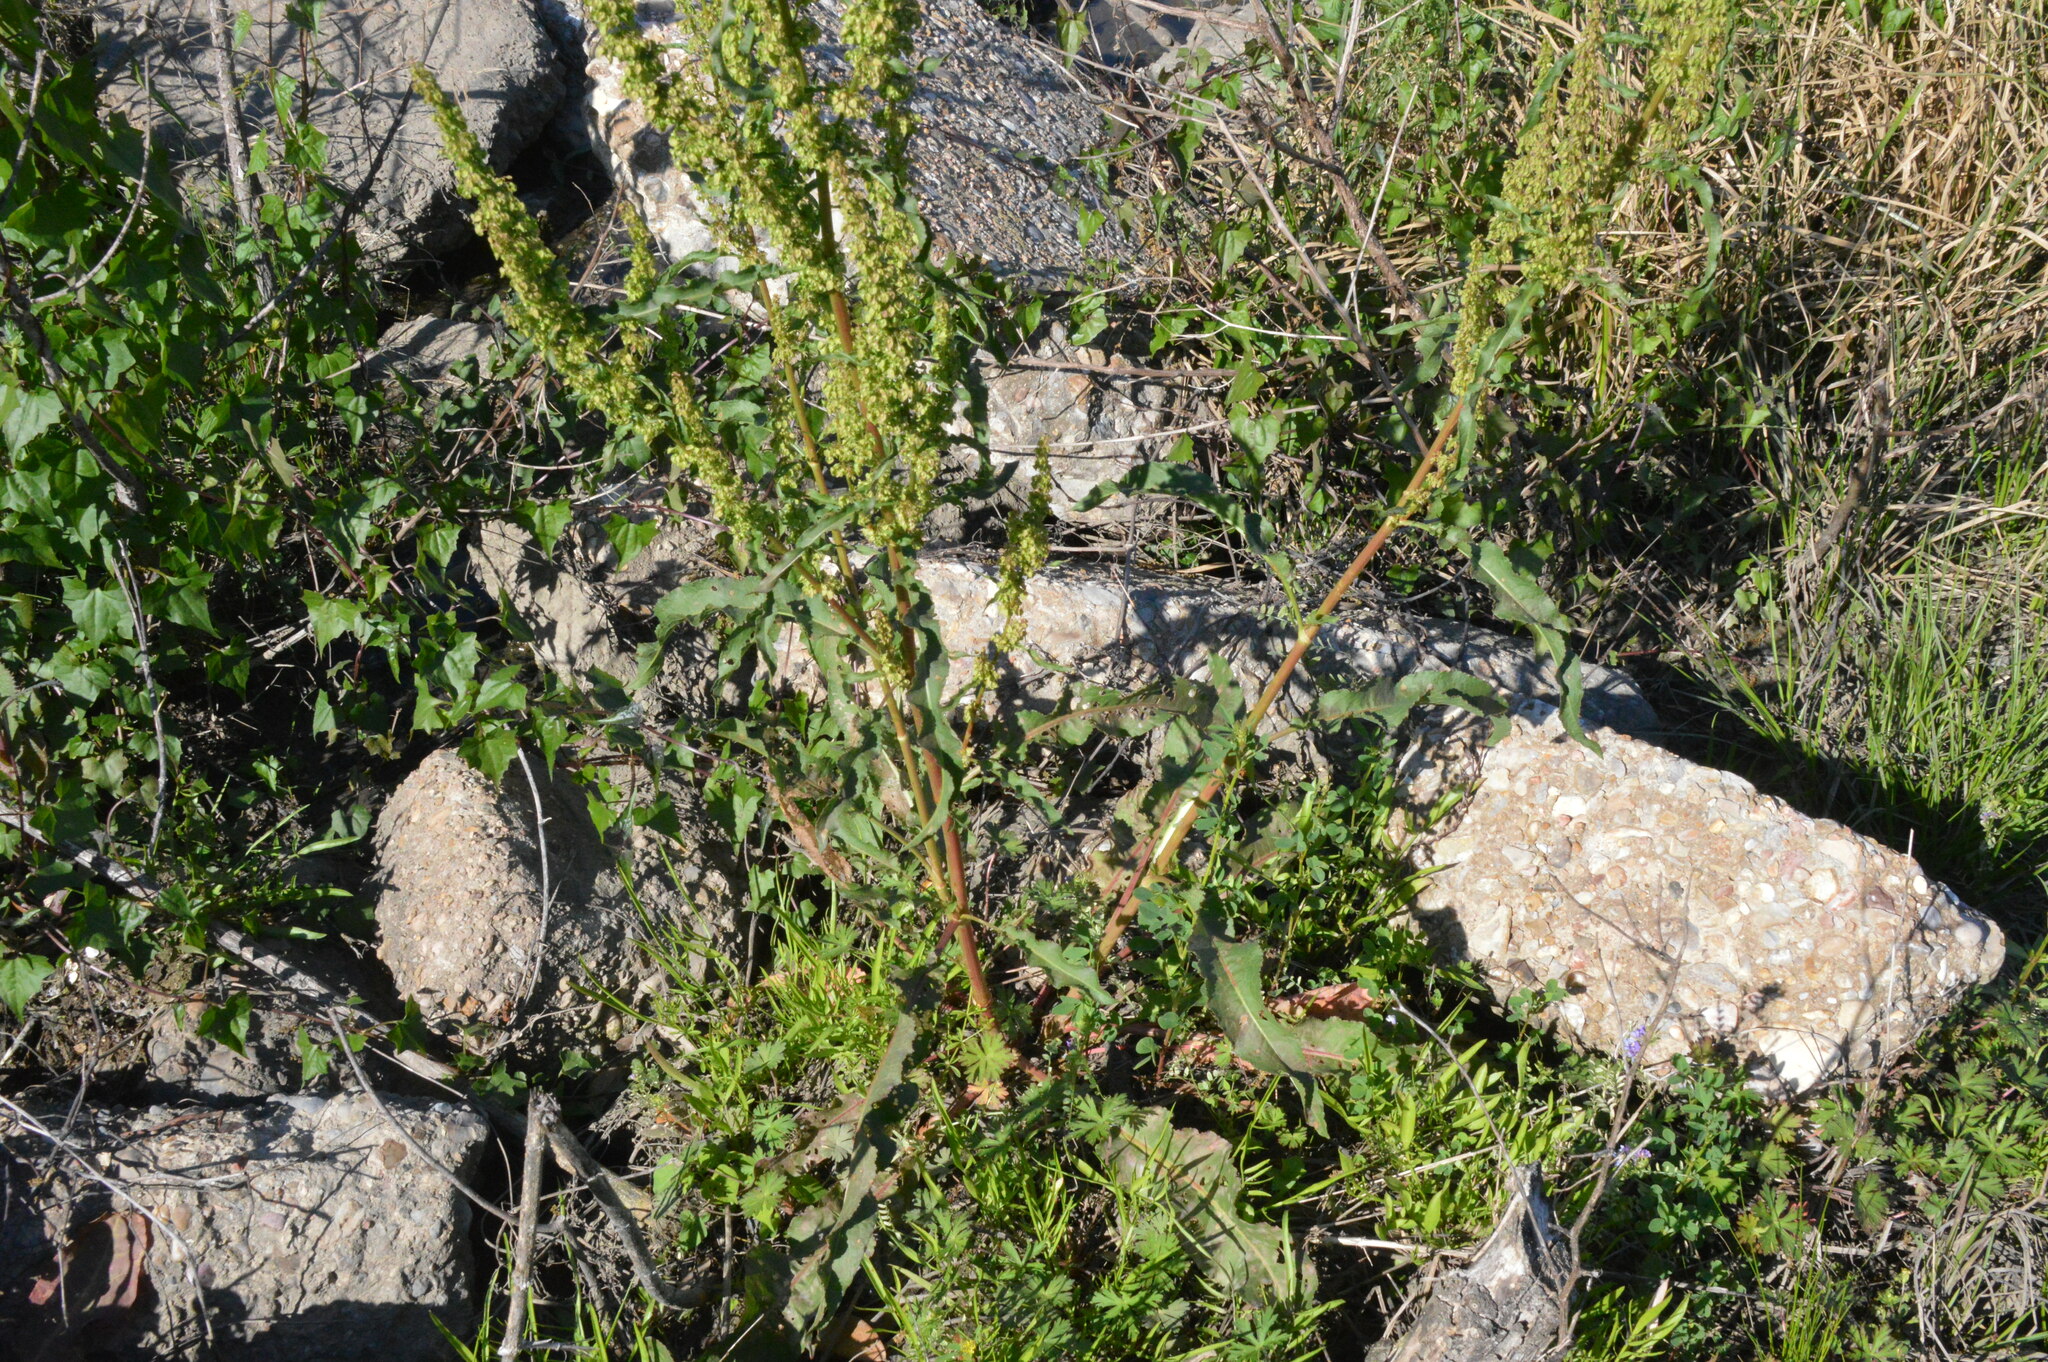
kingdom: Plantae
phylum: Tracheophyta
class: Magnoliopsida
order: Caryophyllales
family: Polygonaceae
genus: Rumex
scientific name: Rumex crispus
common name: Curled dock
